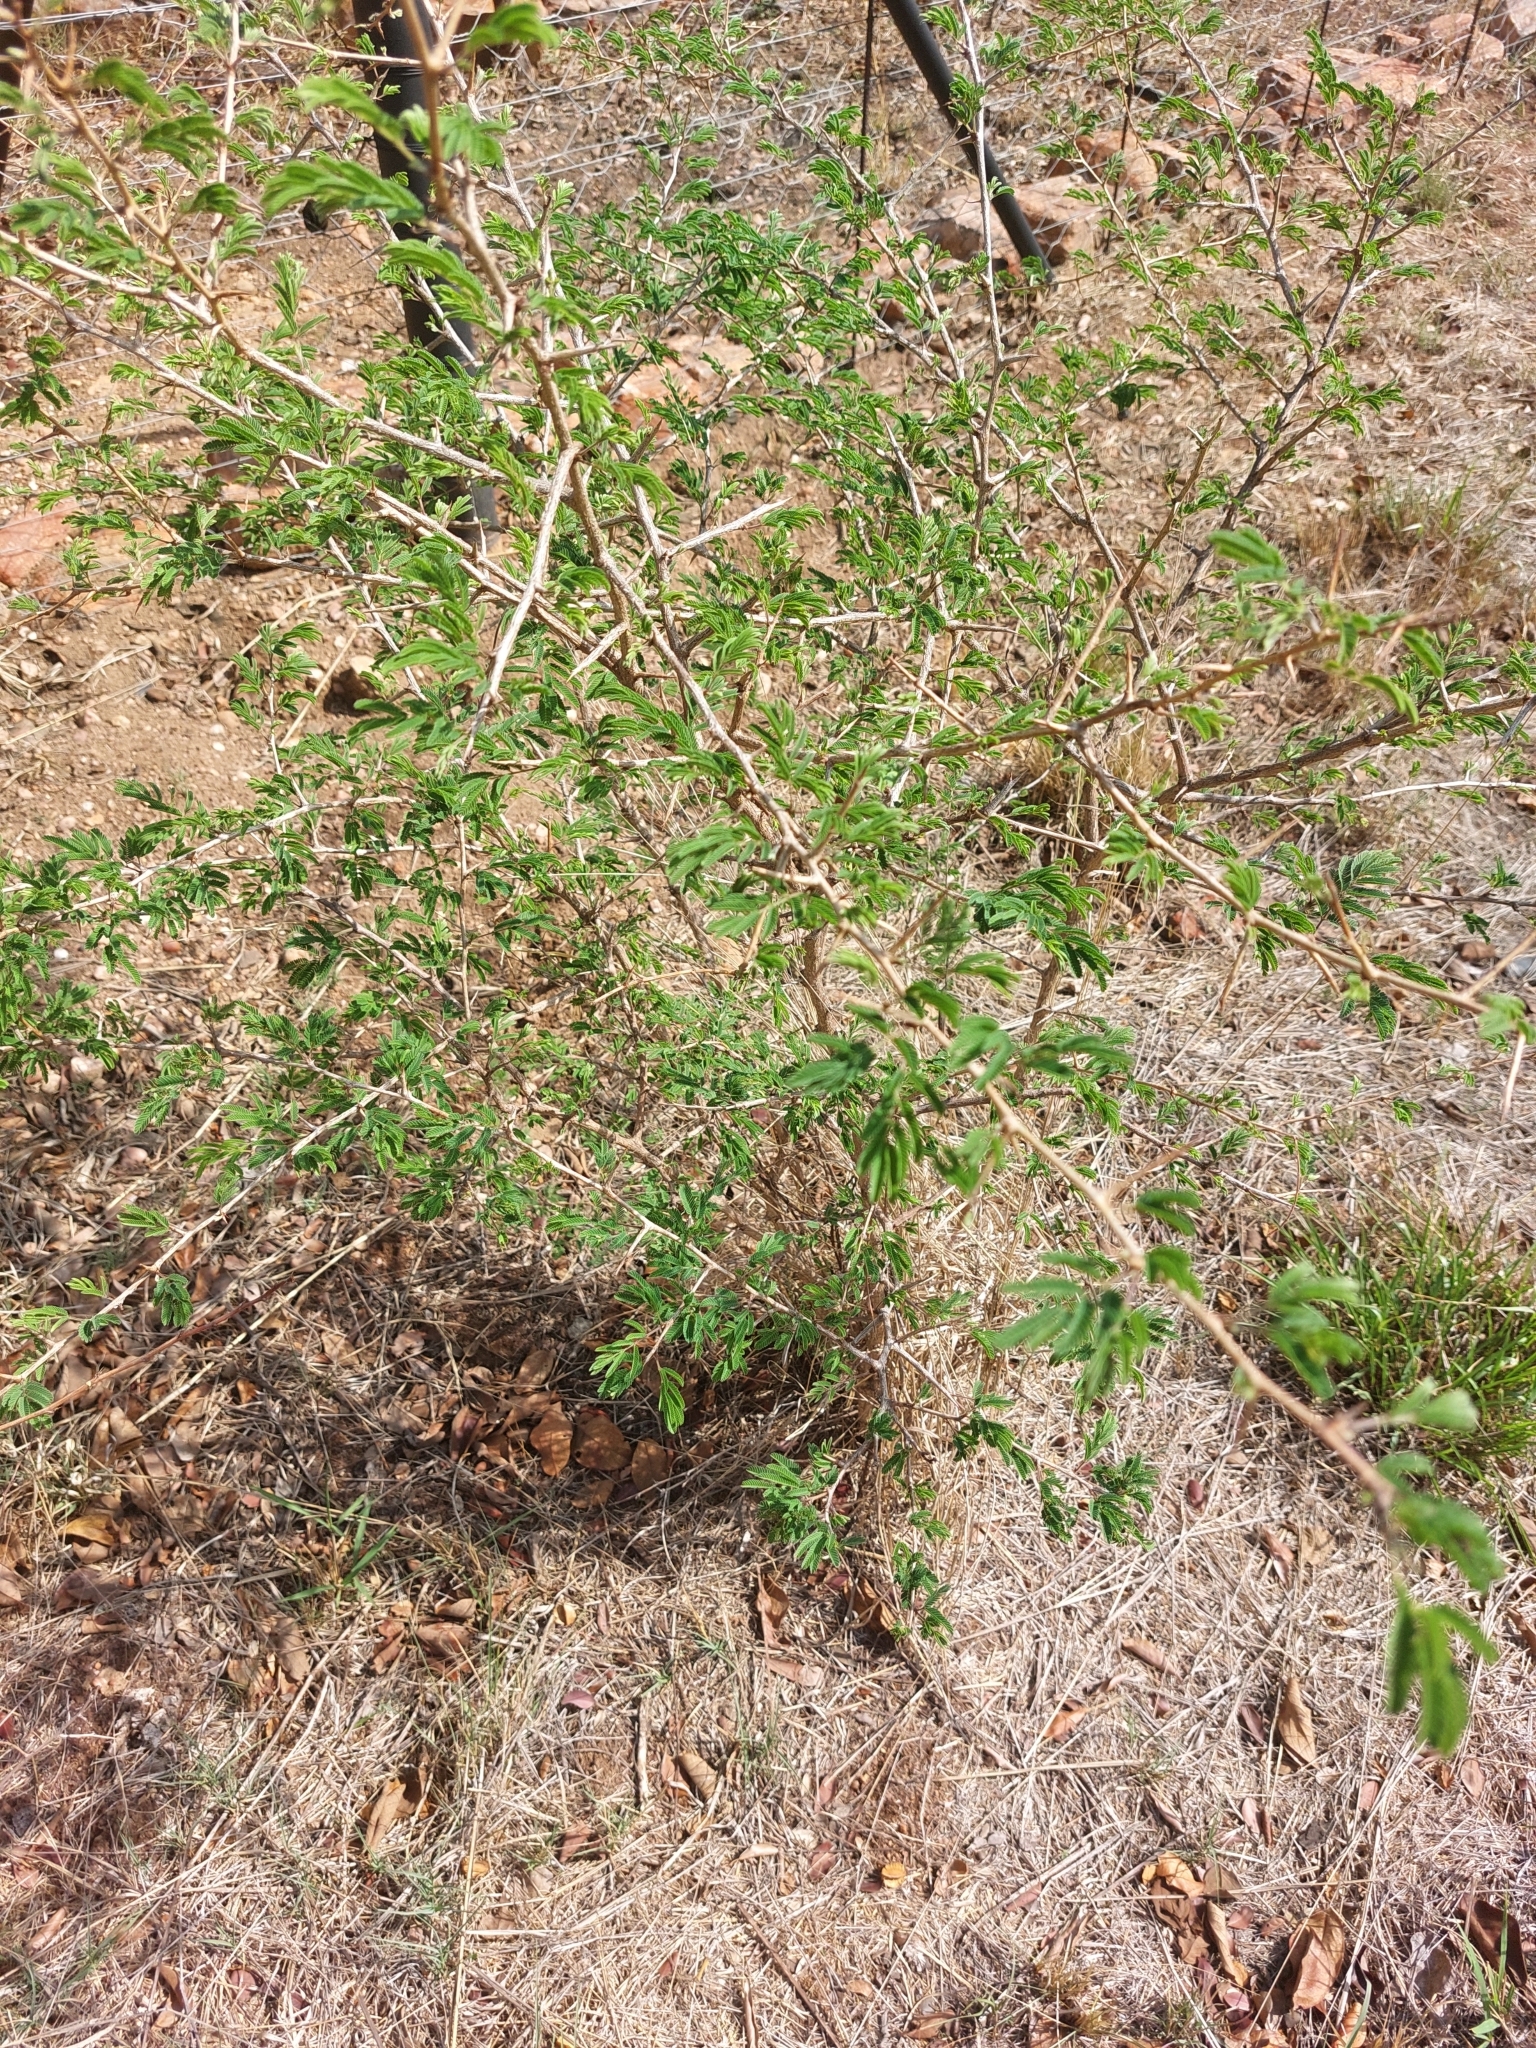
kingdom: Plantae
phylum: Tracheophyta
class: Magnoliopsida
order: Fabales
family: Fabaceae
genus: Dichrostachys
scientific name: Dichrostachys cinerea
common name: Sicklebush
